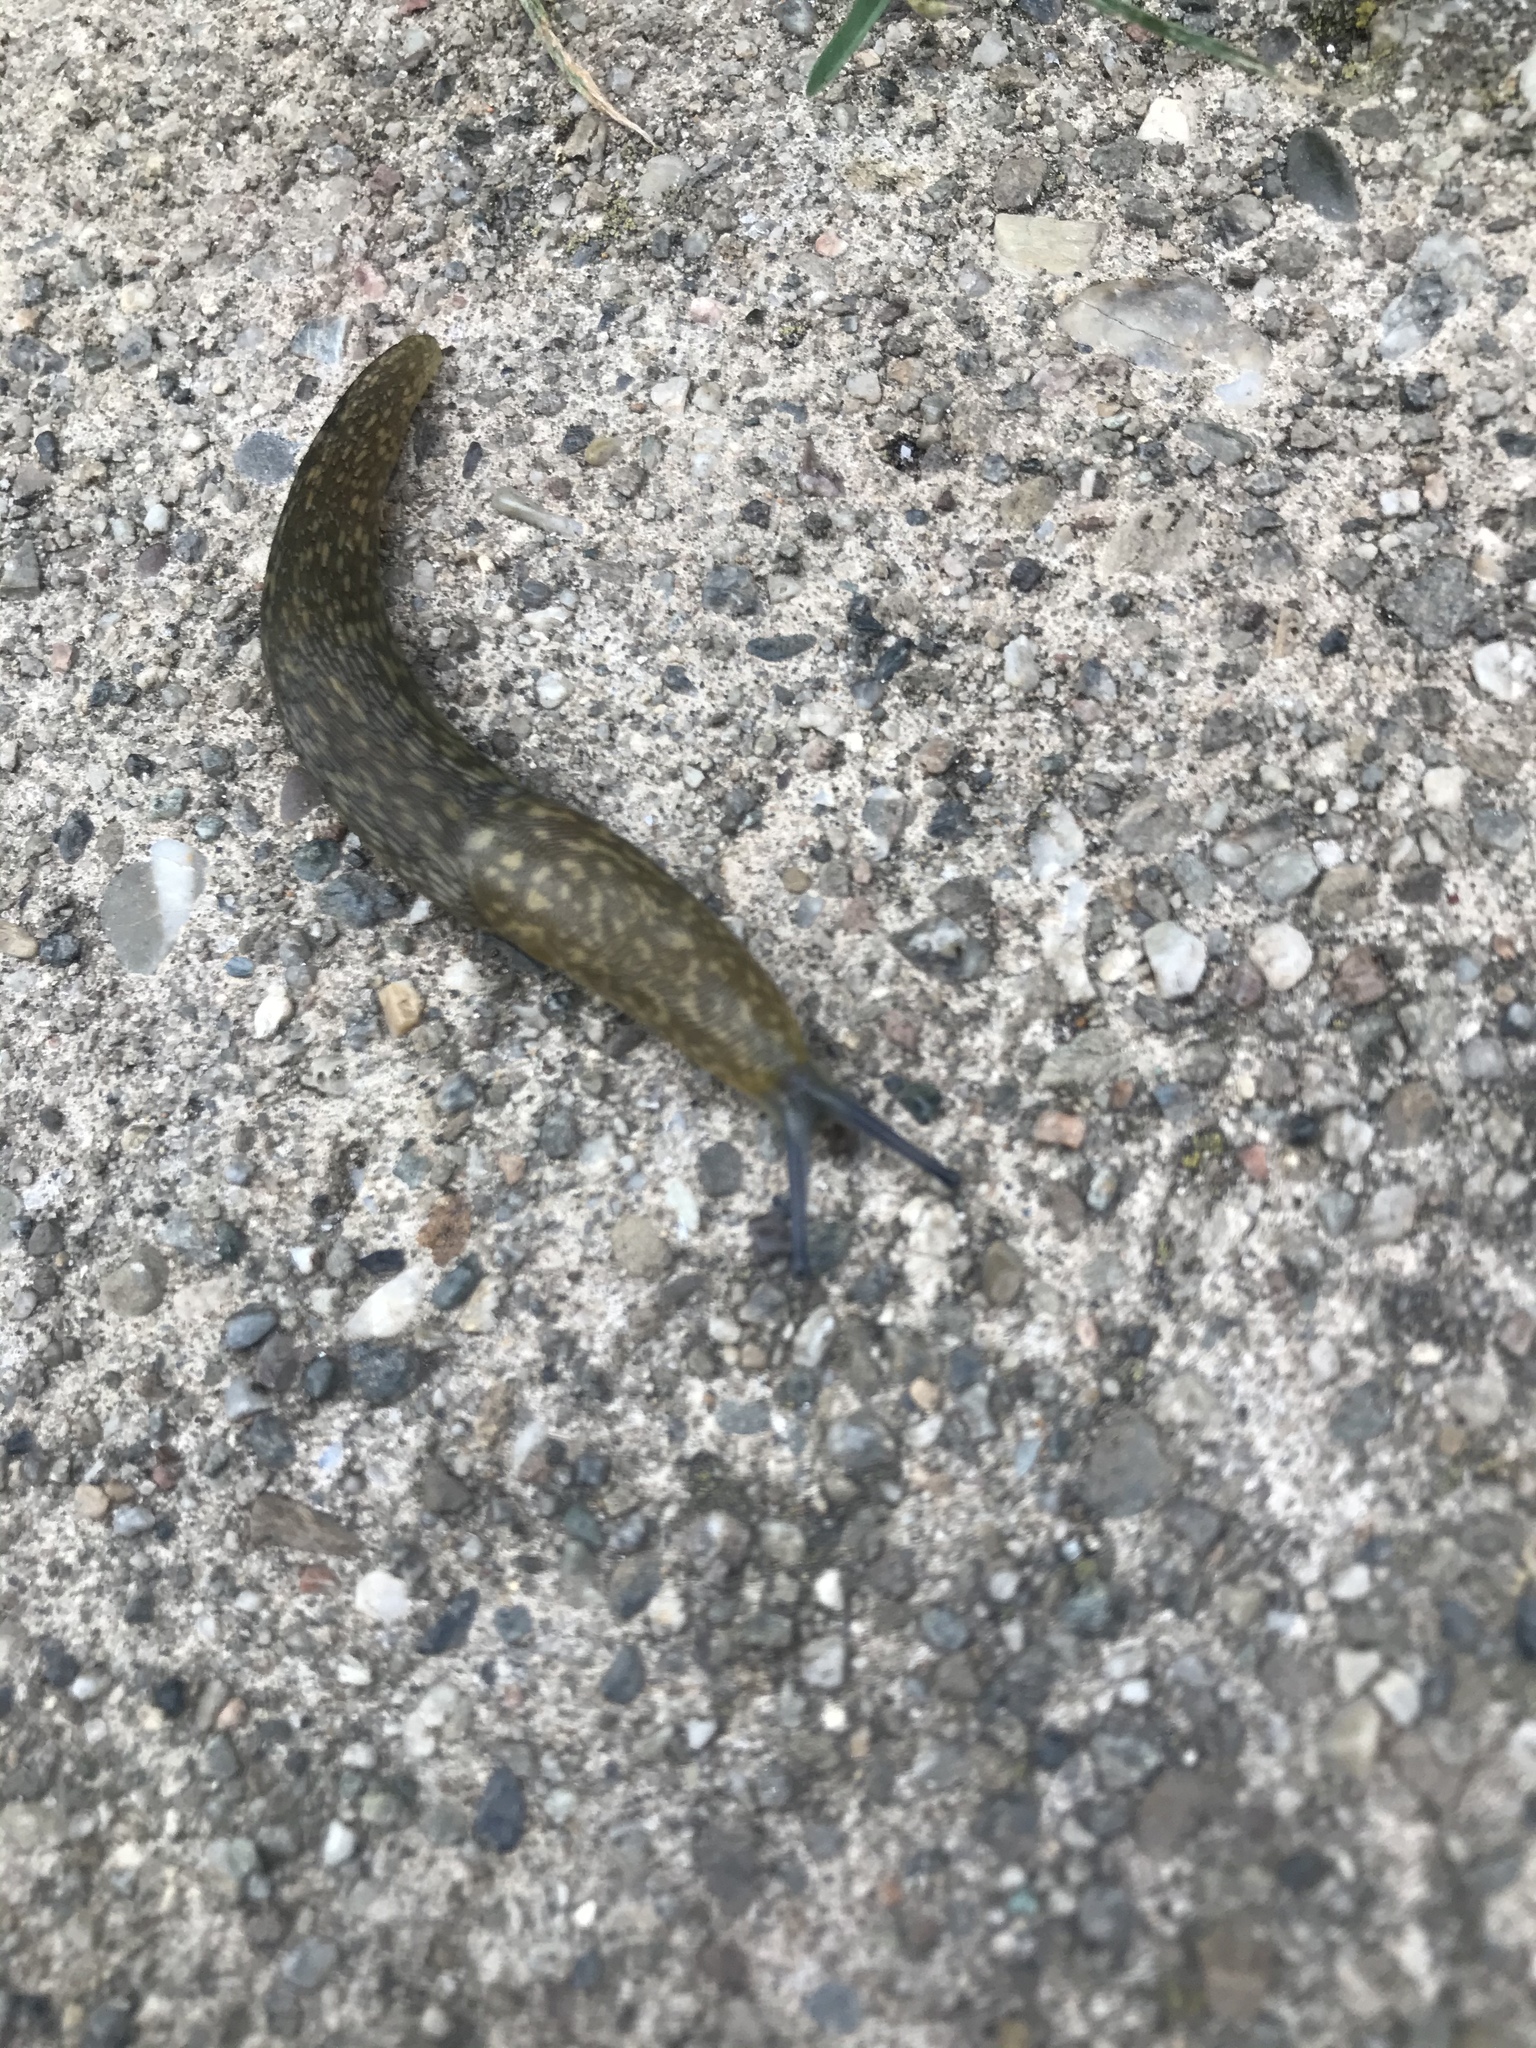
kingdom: Animalia
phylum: Mollusca
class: Gastropoda
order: Stylommatophora
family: Limacidae
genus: Limacus
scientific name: Limacus flavus
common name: Yellow gardenslug
